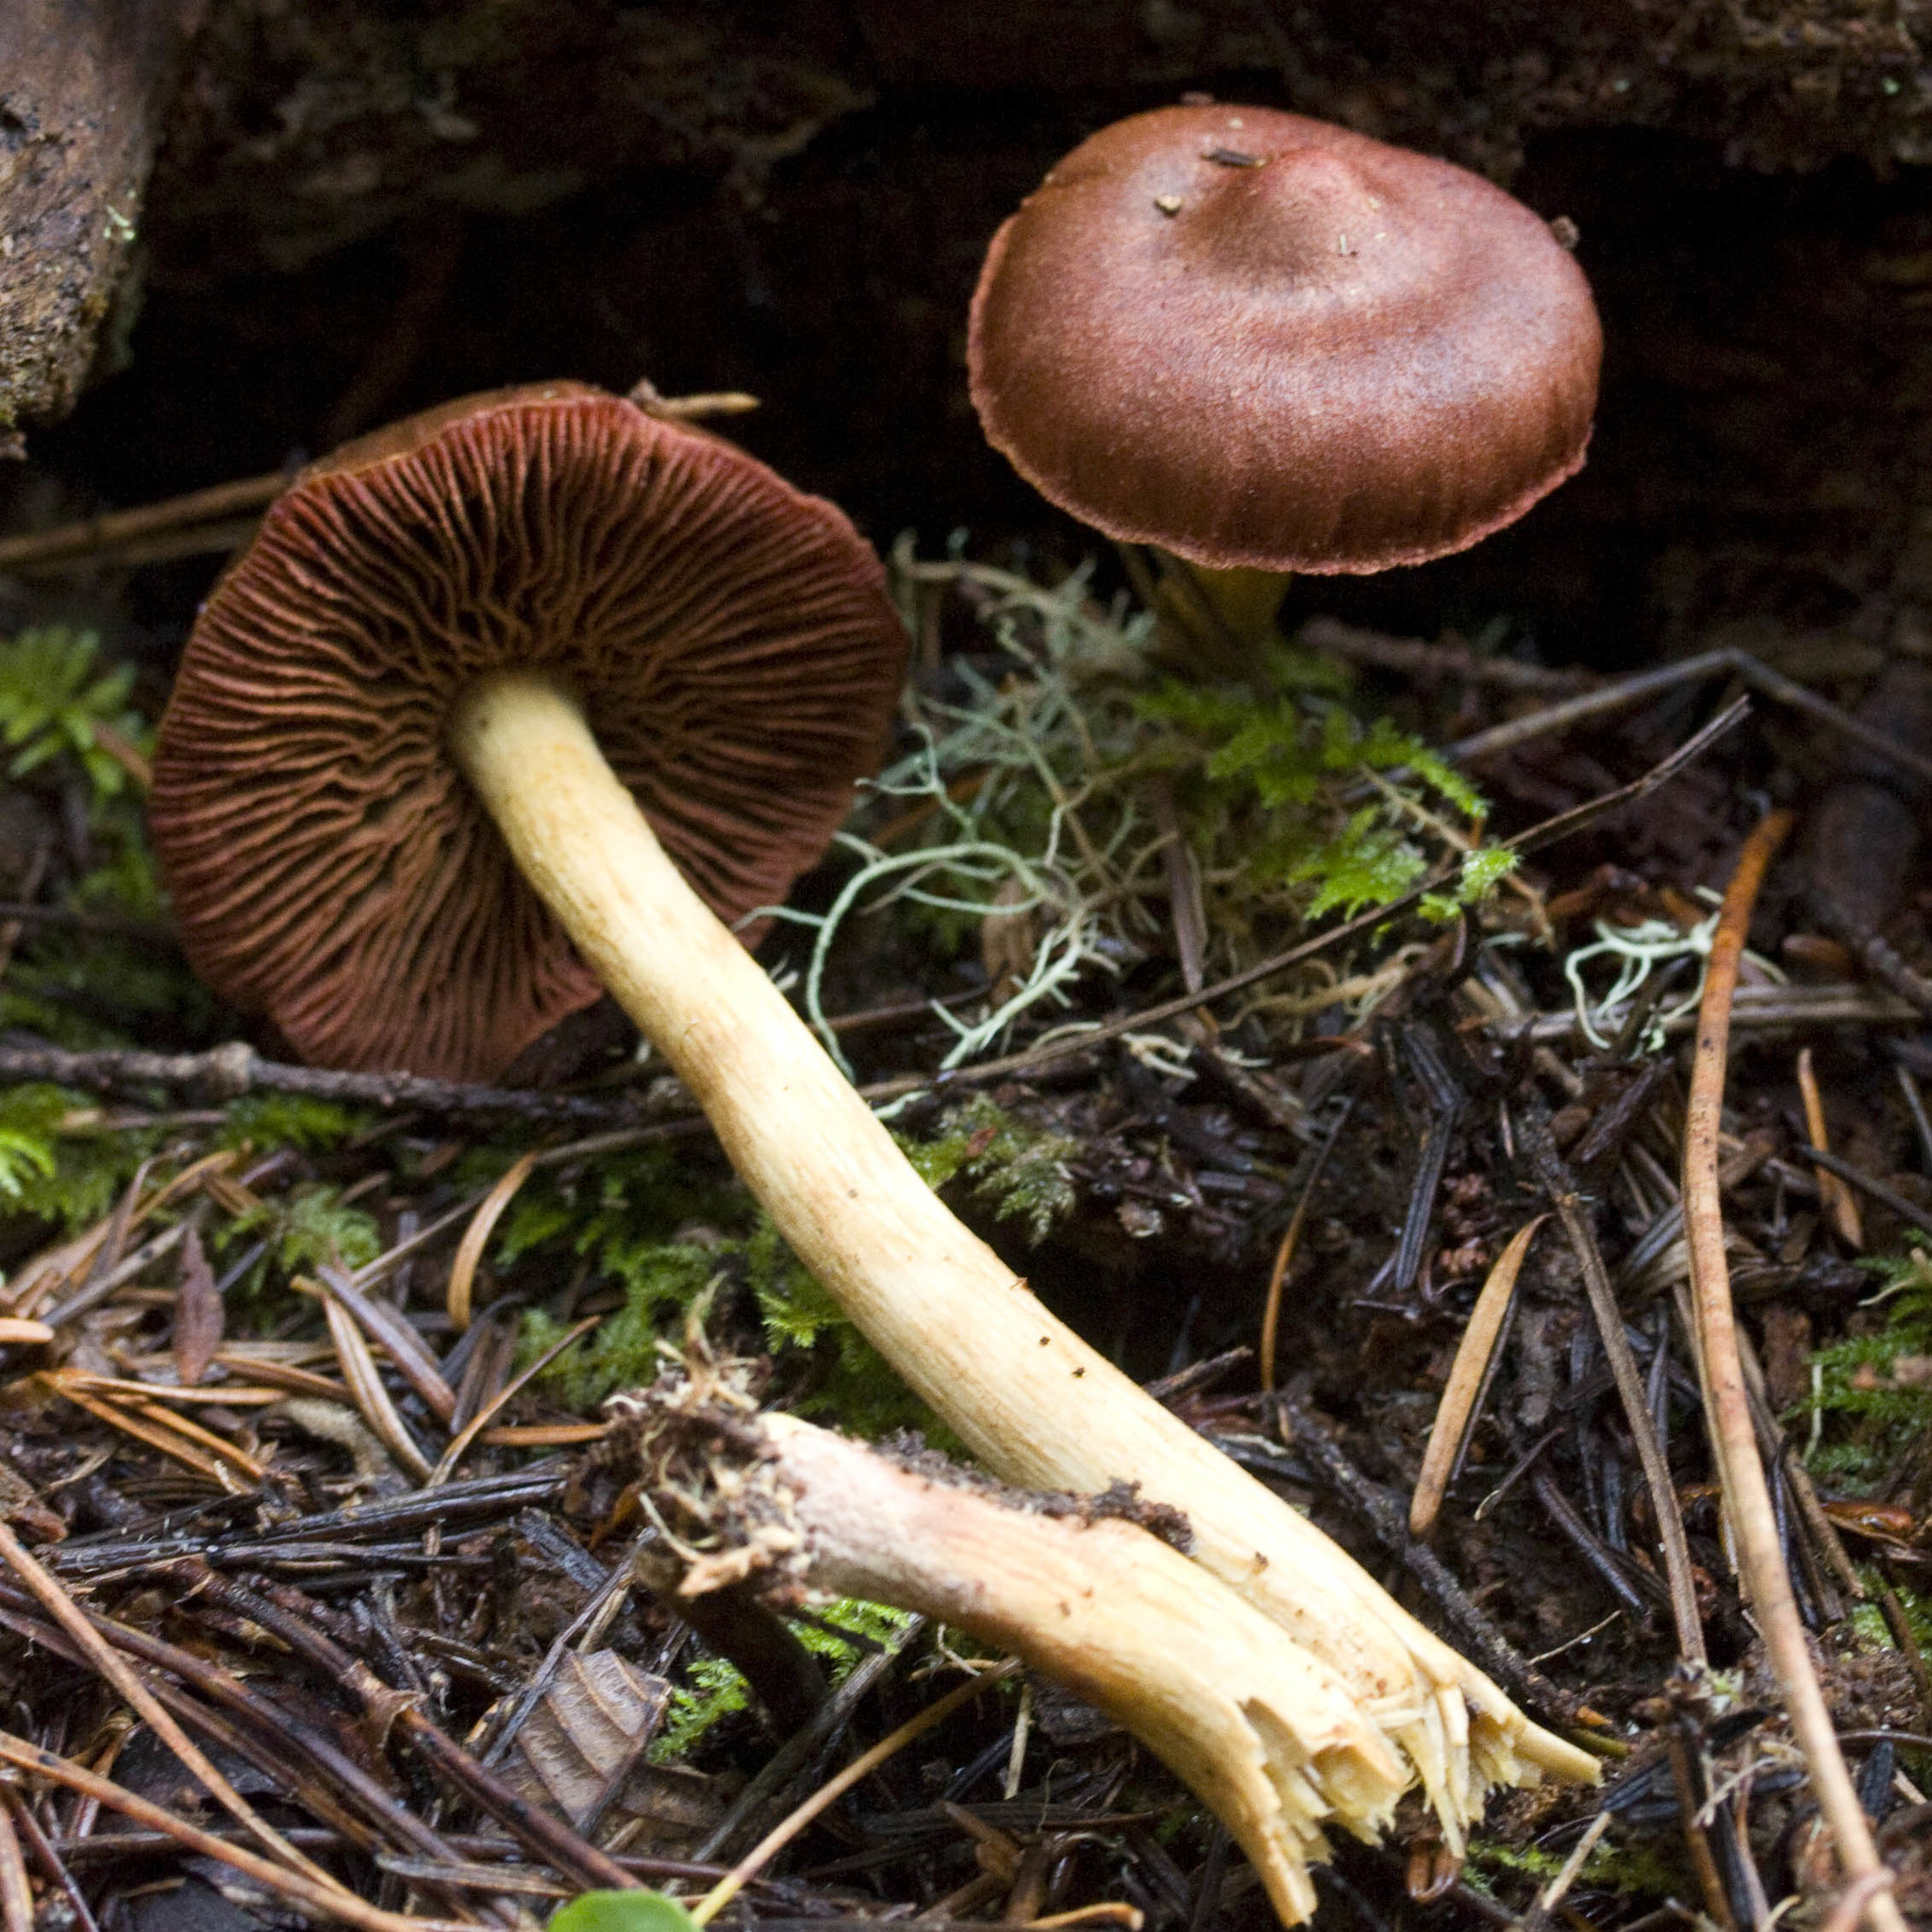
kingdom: Fungi
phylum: Basidiomycota
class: Agaricomycetes
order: Agaricales
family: Cortinariaceae
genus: Cortinarius
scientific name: Cortinarius smithii
